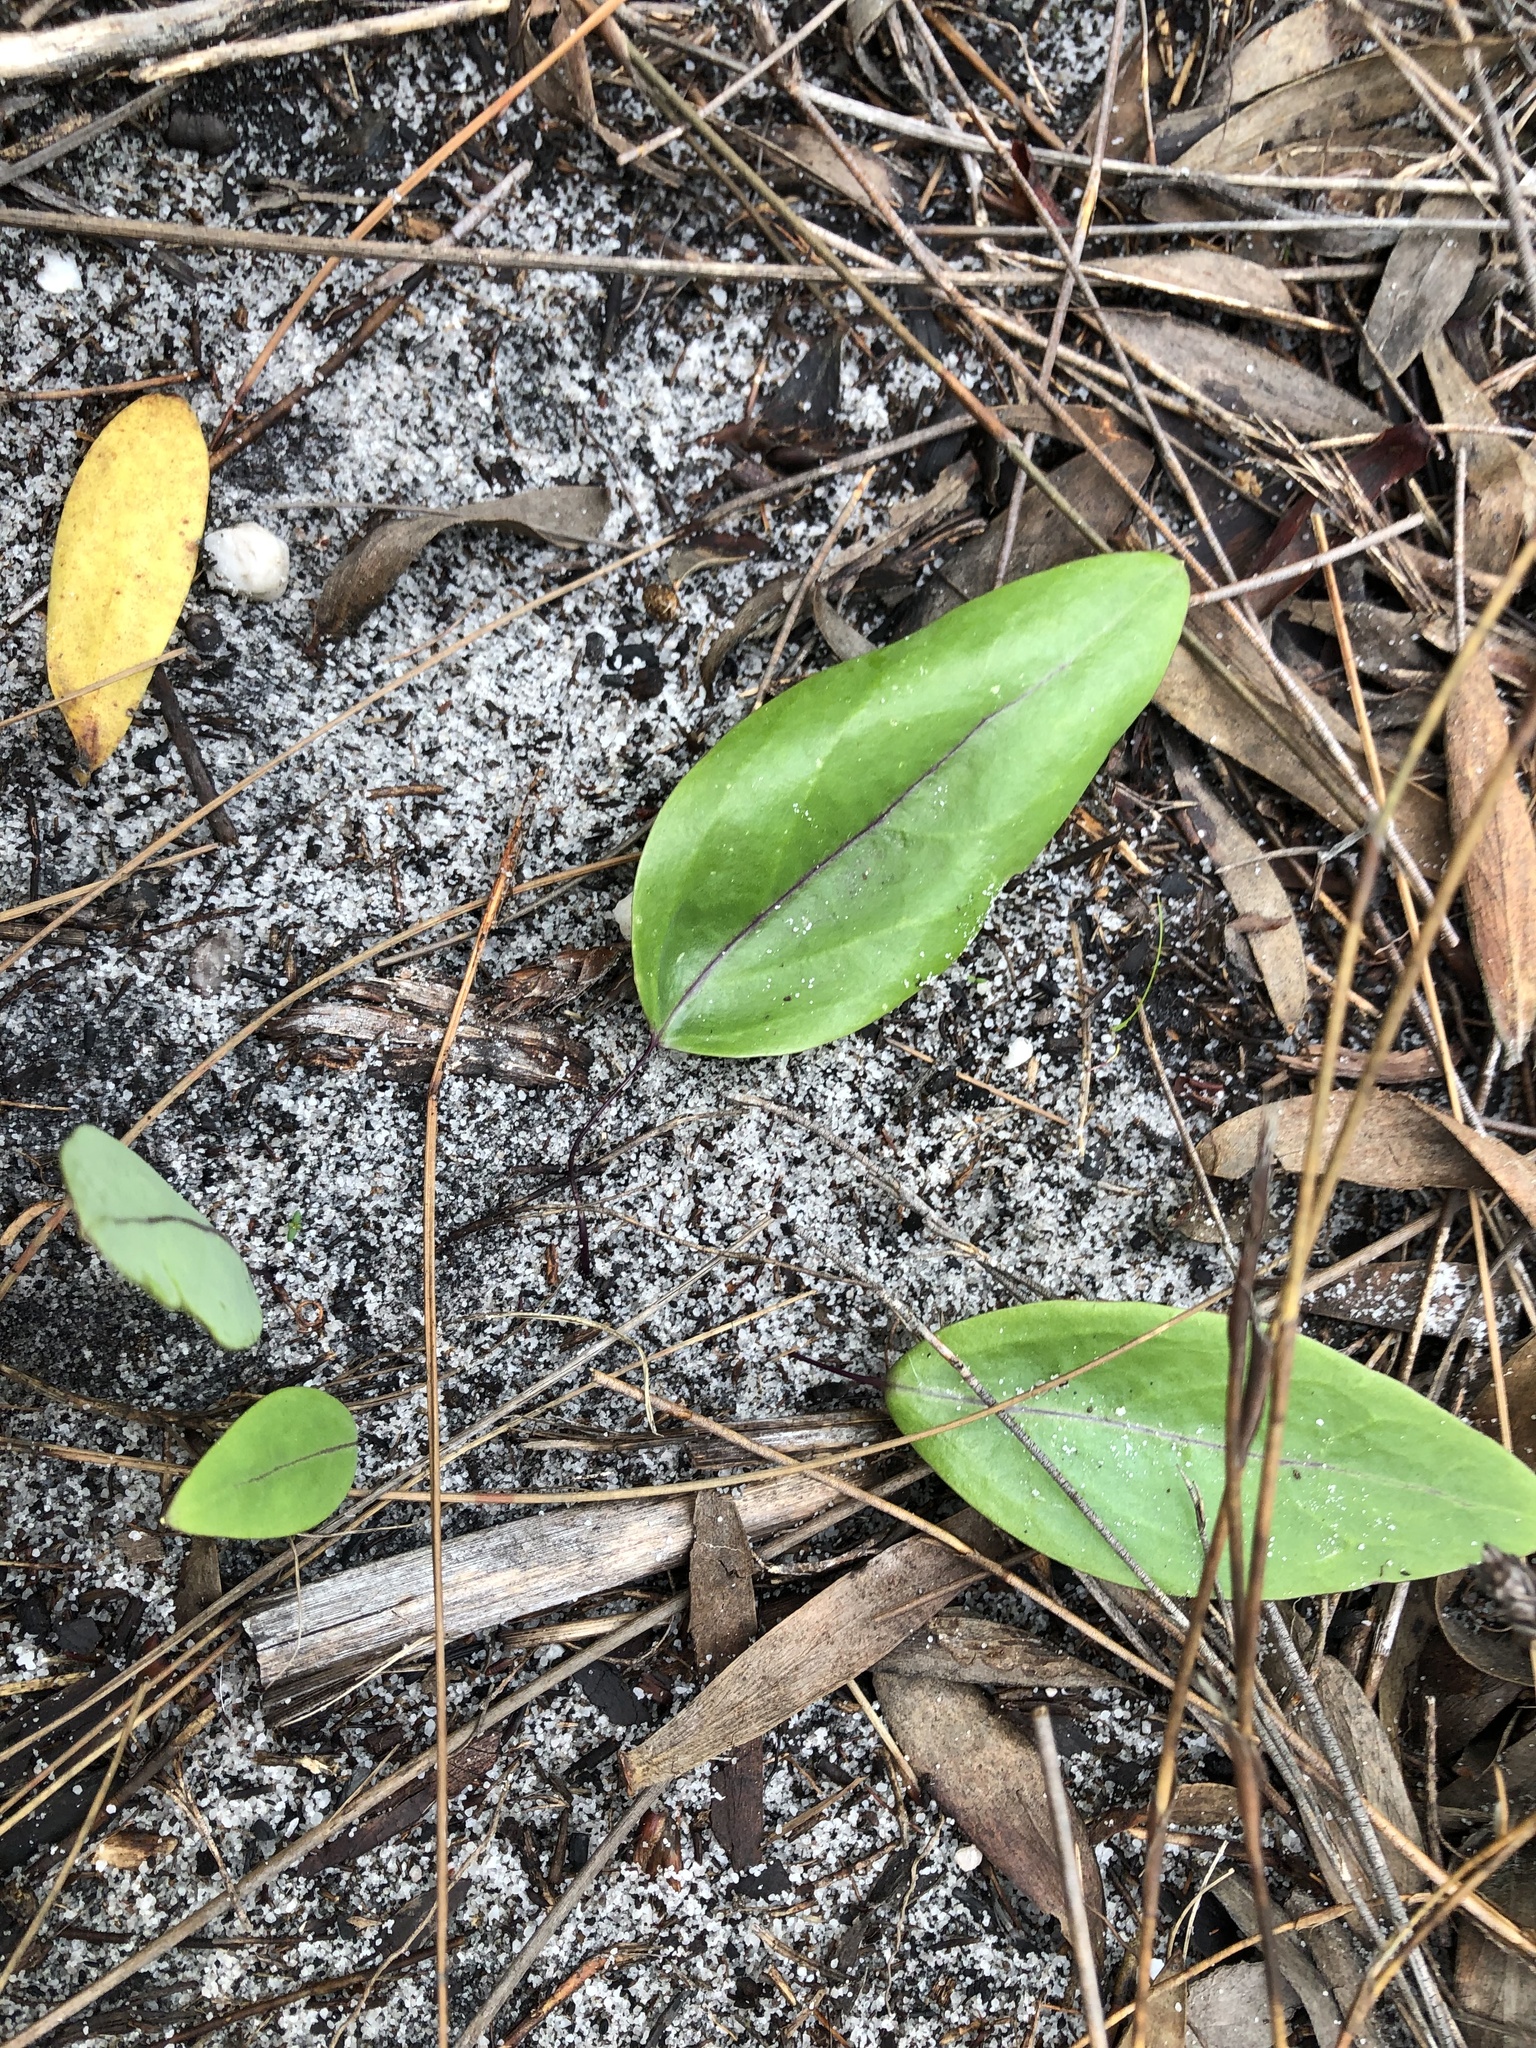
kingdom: Plantae
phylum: Tracheophyta
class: Magnoliopsida
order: Asterales
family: Asteraceae
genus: Othonna
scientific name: Othonna bulbosa
